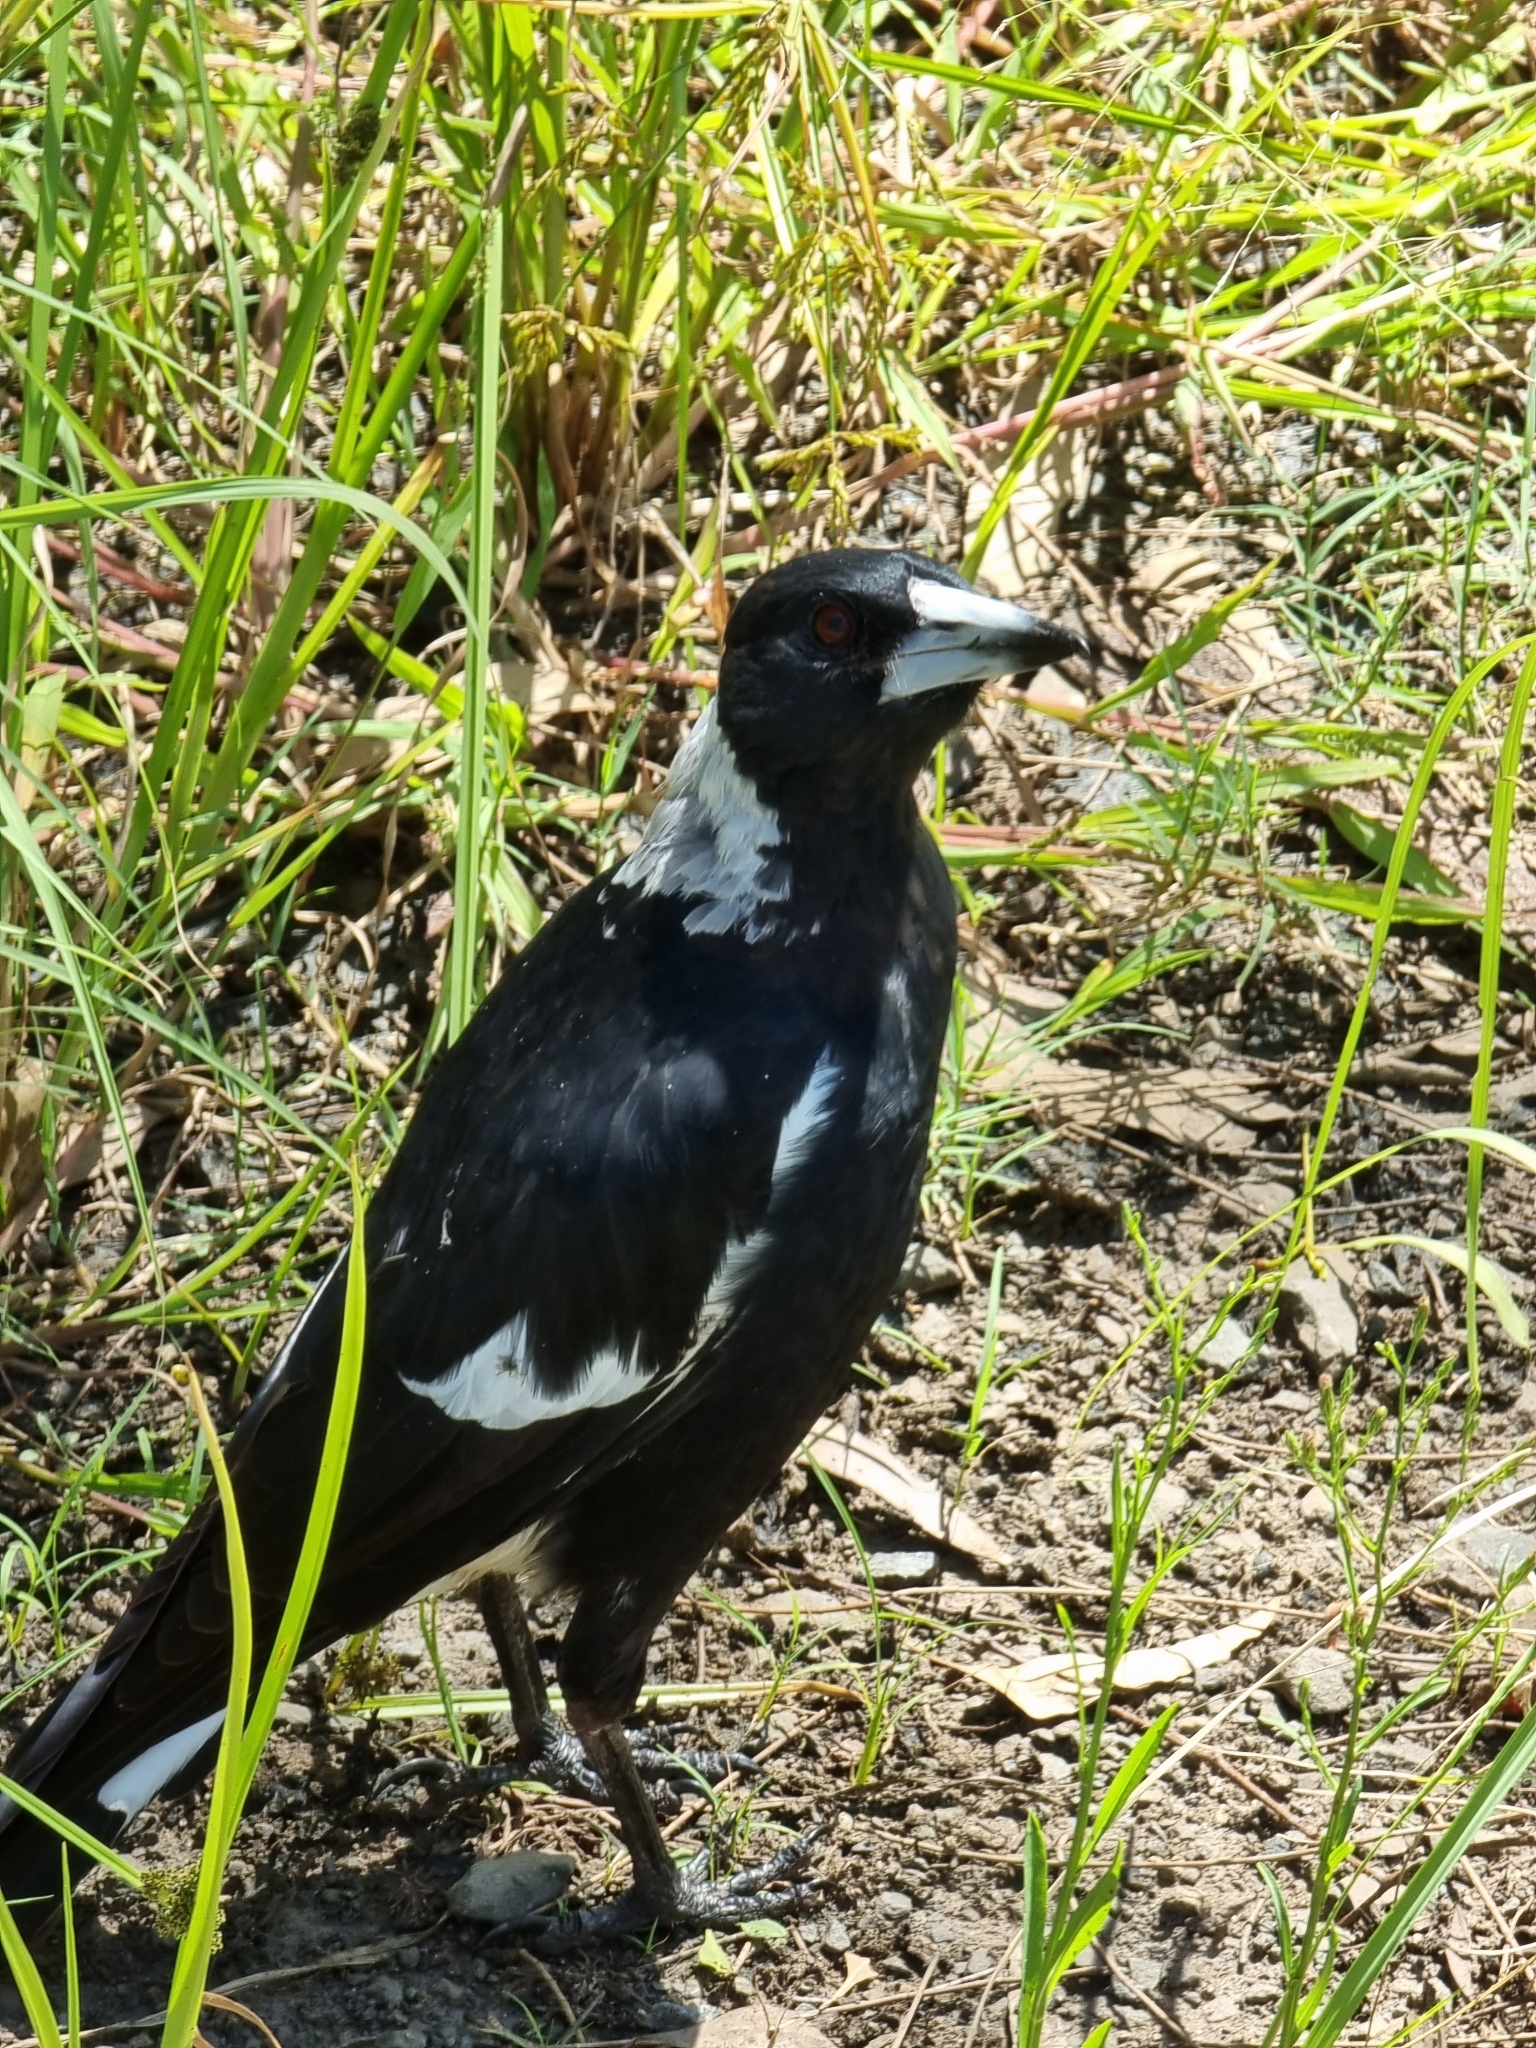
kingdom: Animalia
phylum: Chordata
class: Aves
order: Passeriformes
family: Cracticidae
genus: Gymnorhina
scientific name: Gymnorhina tibicen
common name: Australian magpie
